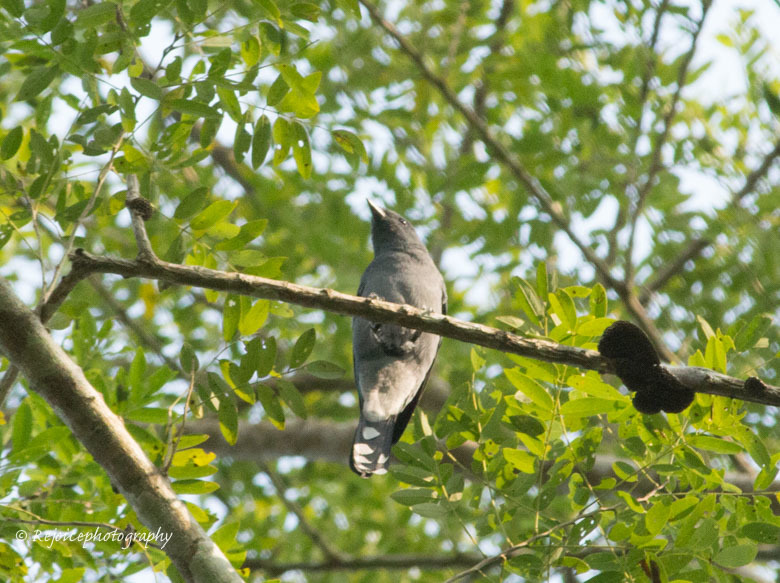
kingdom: Animalia
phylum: Chordata
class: Aves
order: Passeriformes
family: Campephagidae
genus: Coracina
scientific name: Coracina melaschistos
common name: Black-winged cuckooshrike
